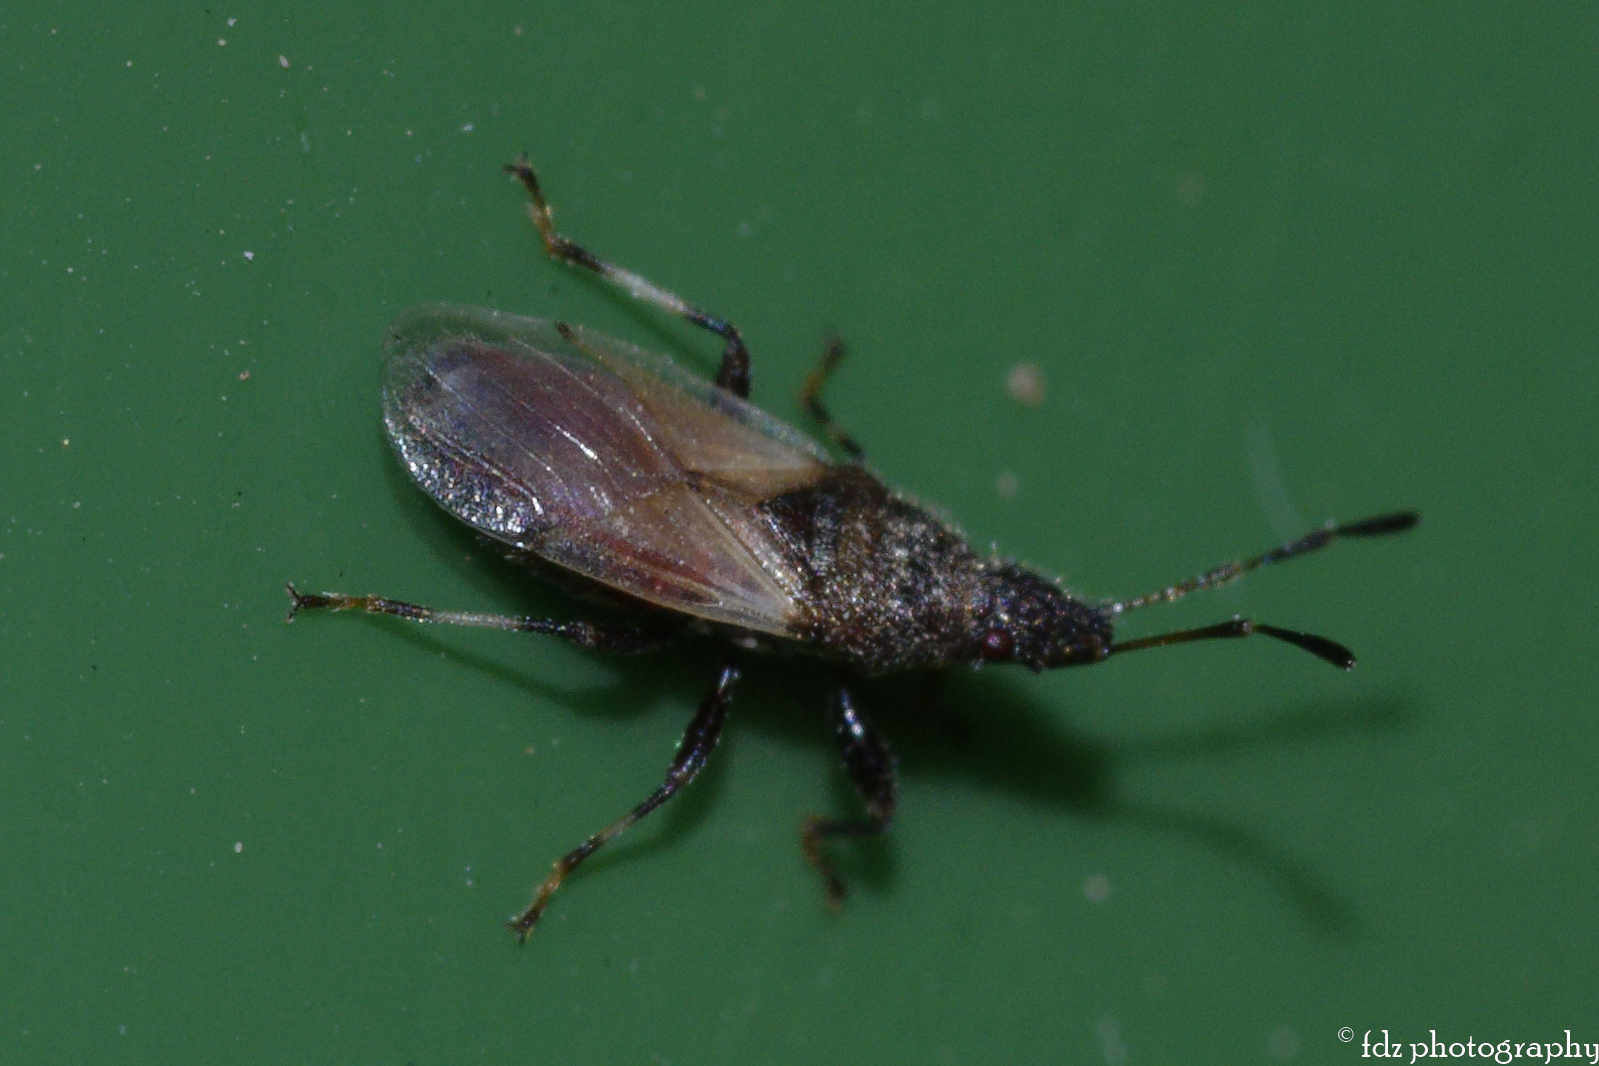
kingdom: Animalia
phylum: Arthropoda
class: Insecta
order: Hemiptera
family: Oxycarenidae
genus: Oxycarenus
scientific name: Oxycarenus lavaterae
